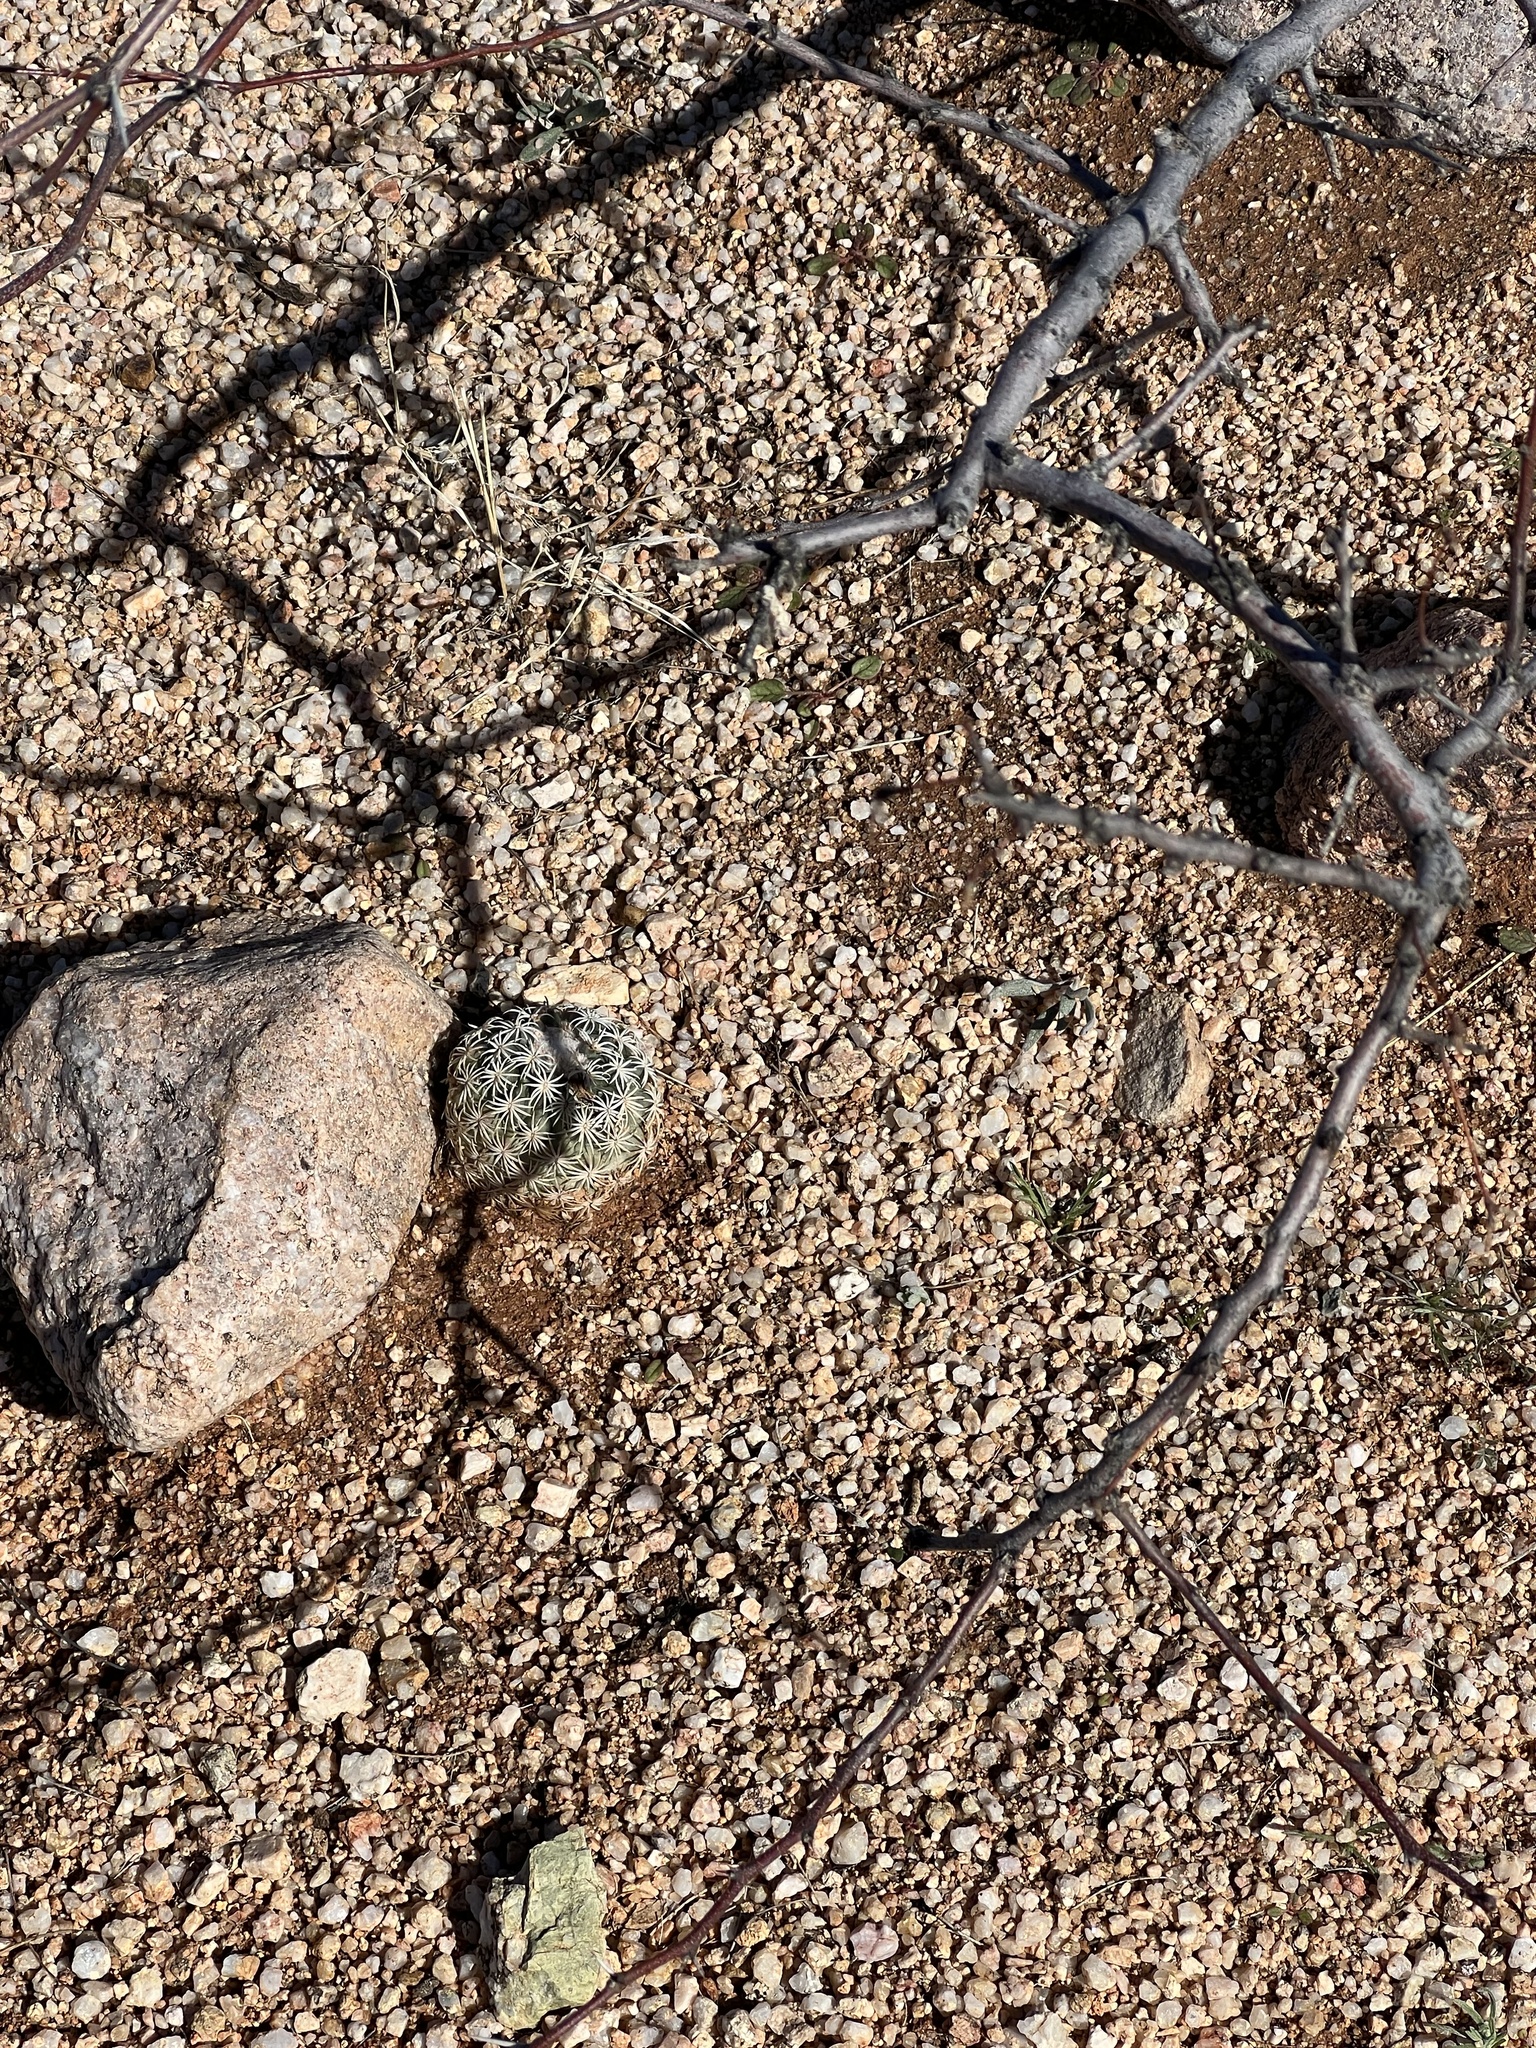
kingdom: Plantae
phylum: Tracheophyta
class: Magnoliopsida
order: Caryophyllales
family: Cactaceae
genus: Sclerocactus
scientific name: Sclerocactus johnsonii
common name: Eight-spine fishhook cactus
